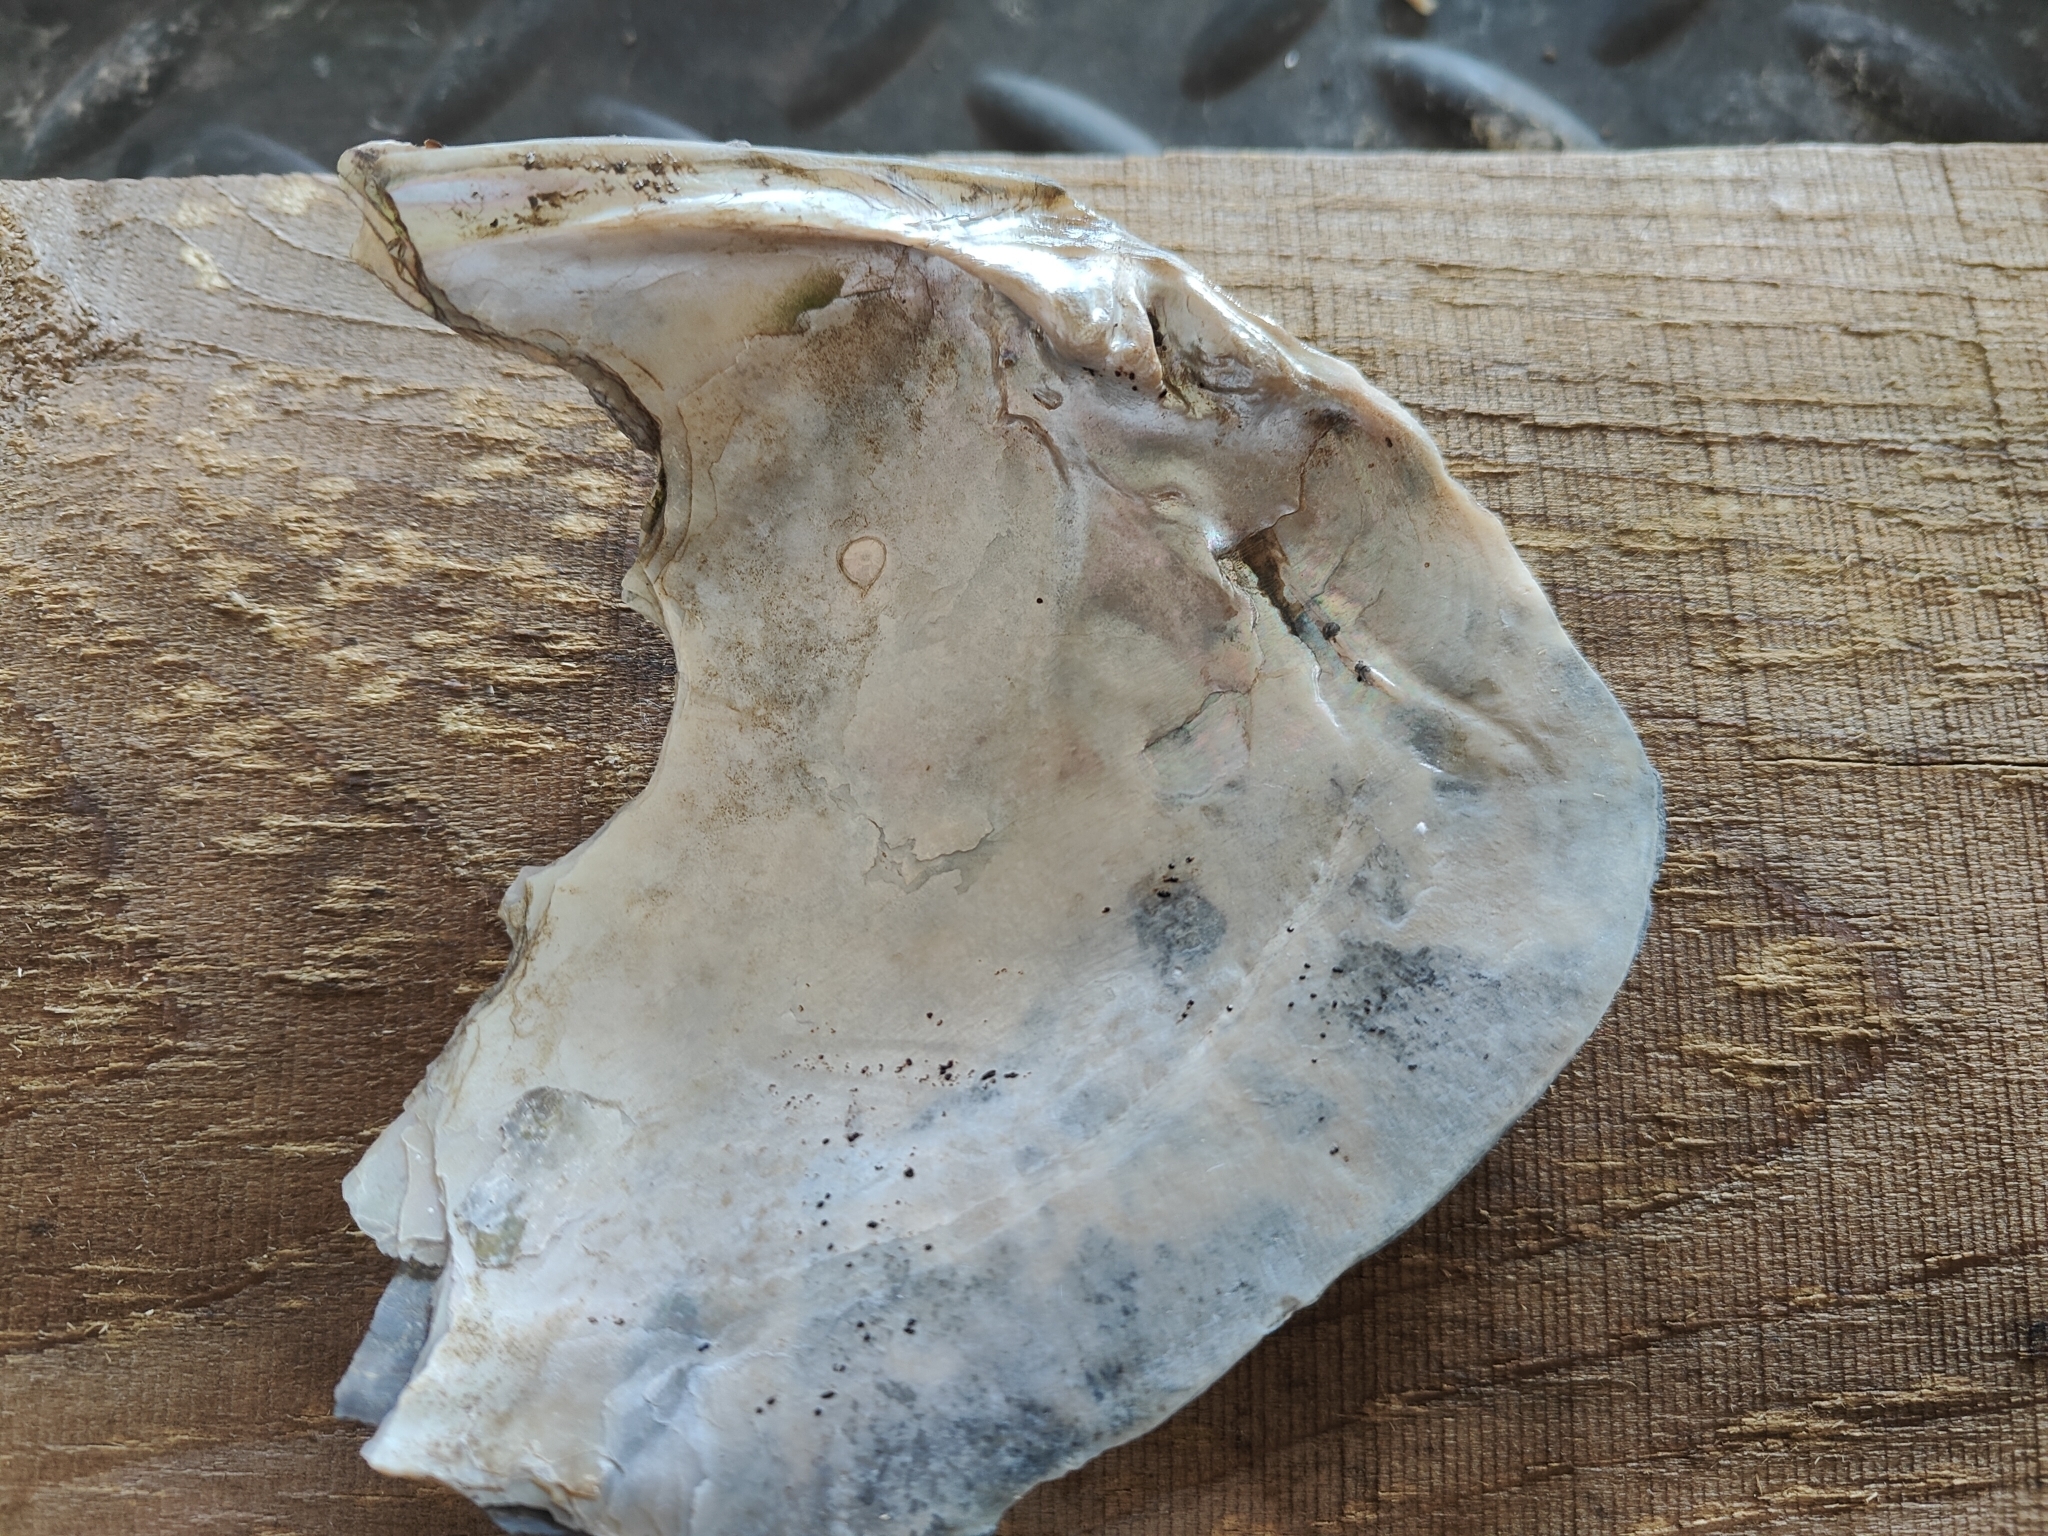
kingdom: Animalia
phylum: Mollusca
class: Bivalvia
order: Unionida
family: Unionidae
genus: Lasmigona
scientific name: Lasmigona complanata
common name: White heelsplitter
